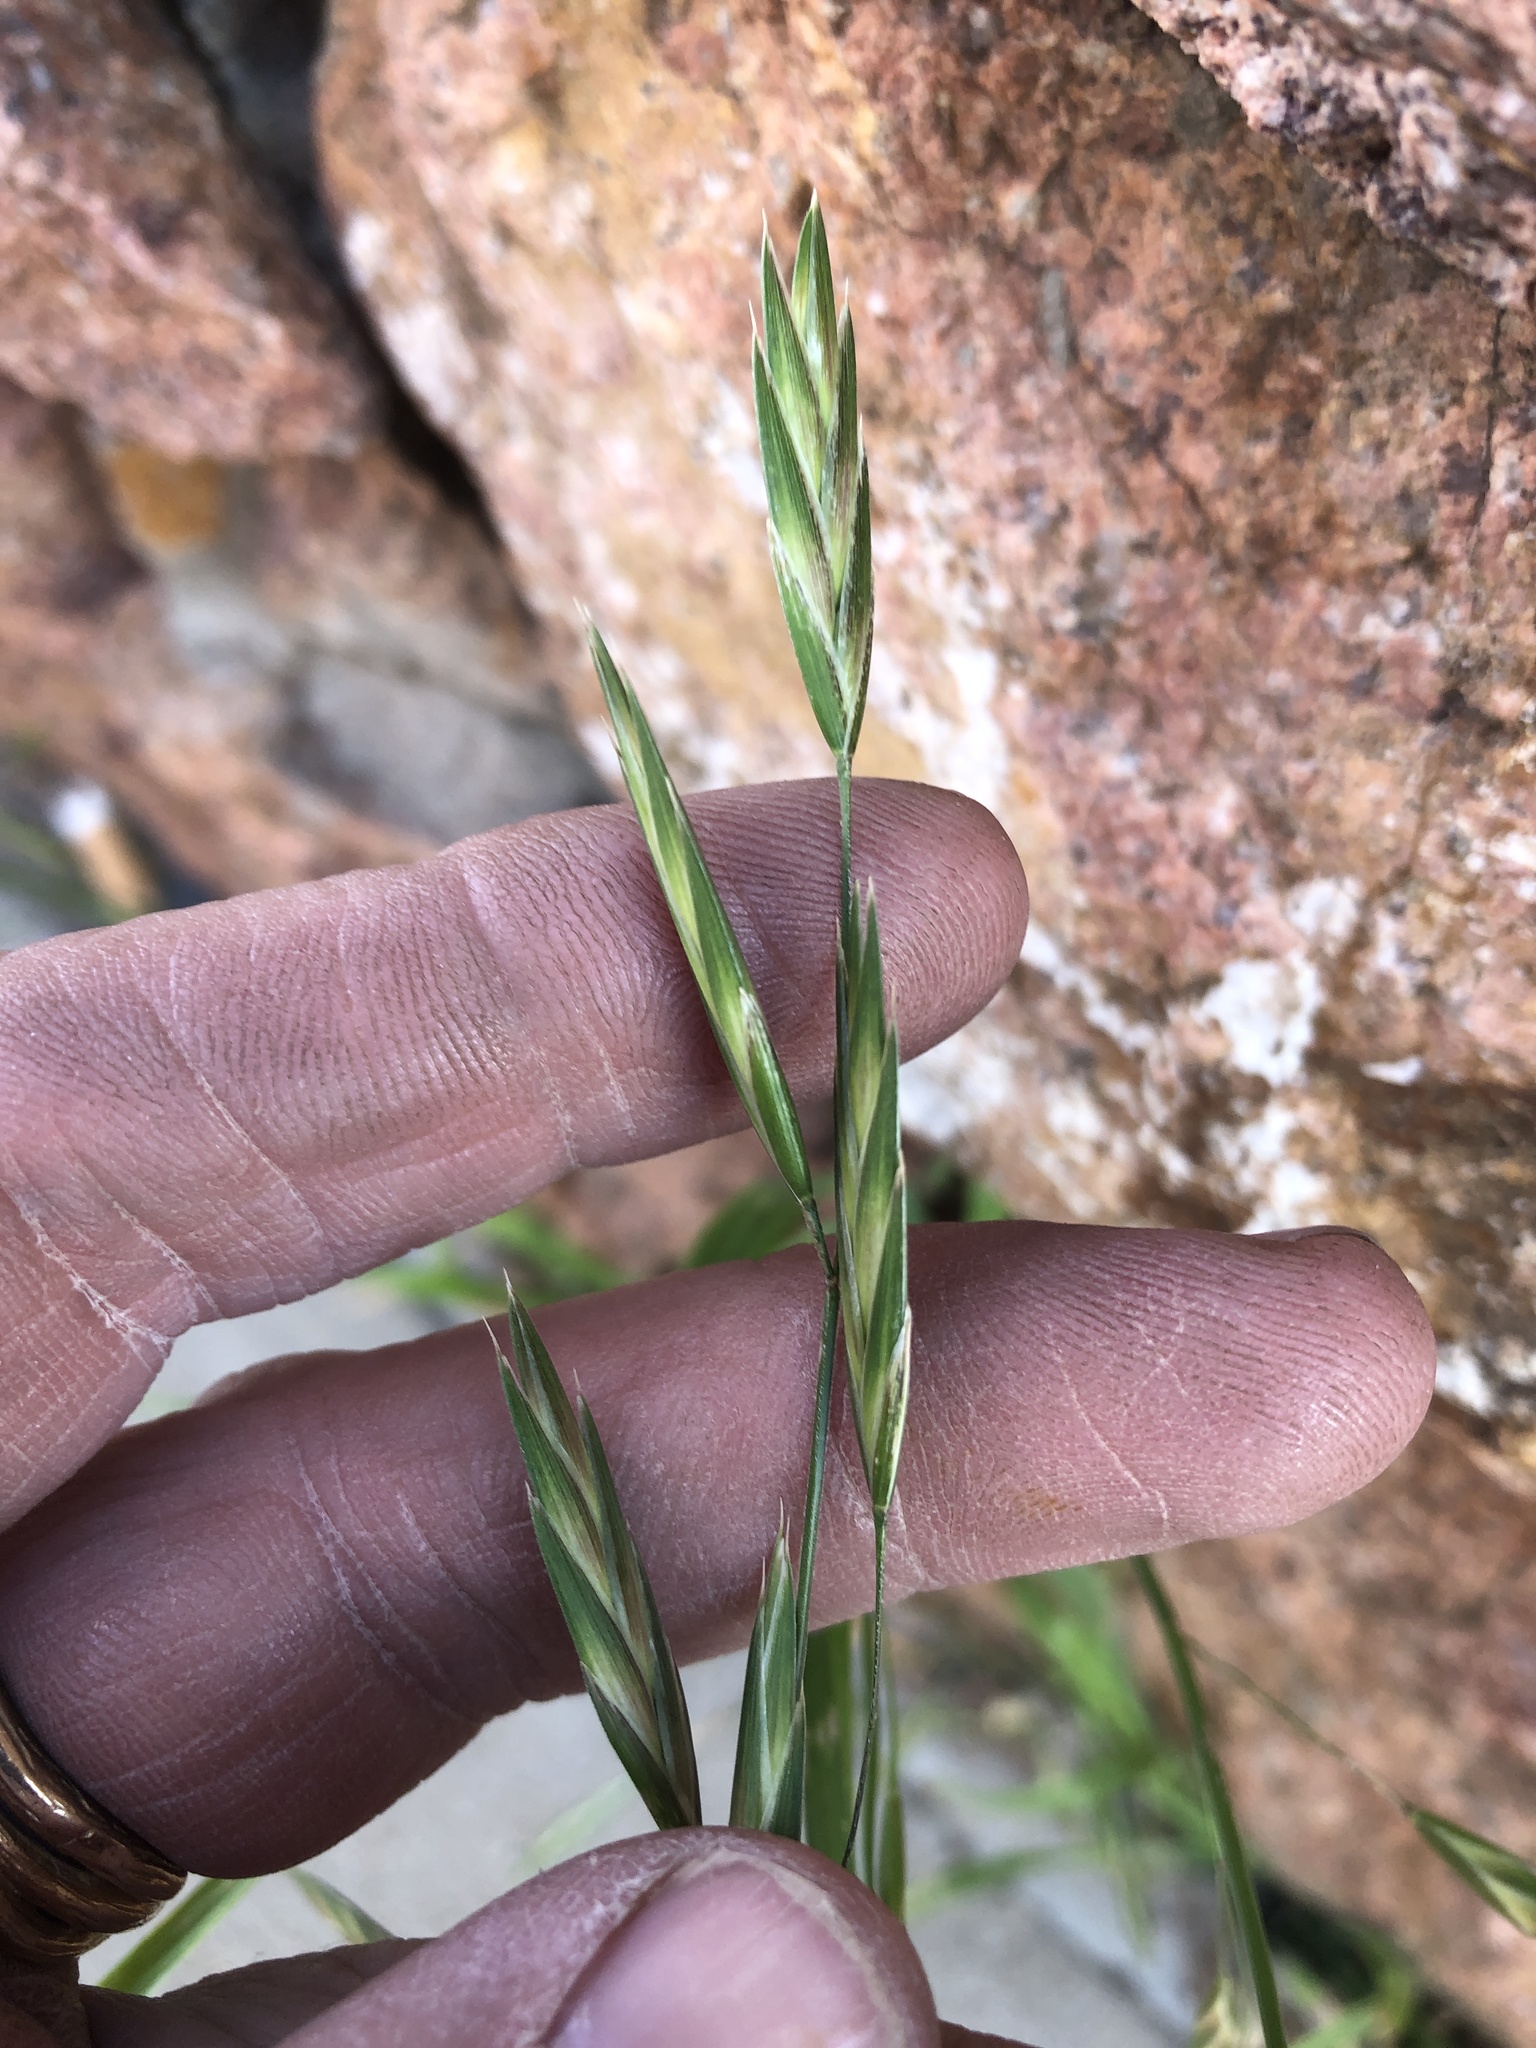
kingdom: Plantae
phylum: Tracheophyta
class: Liliopsida
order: Poales
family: Poaceae
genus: Bromus
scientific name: Bromus catharticus
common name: Rescuegrass
